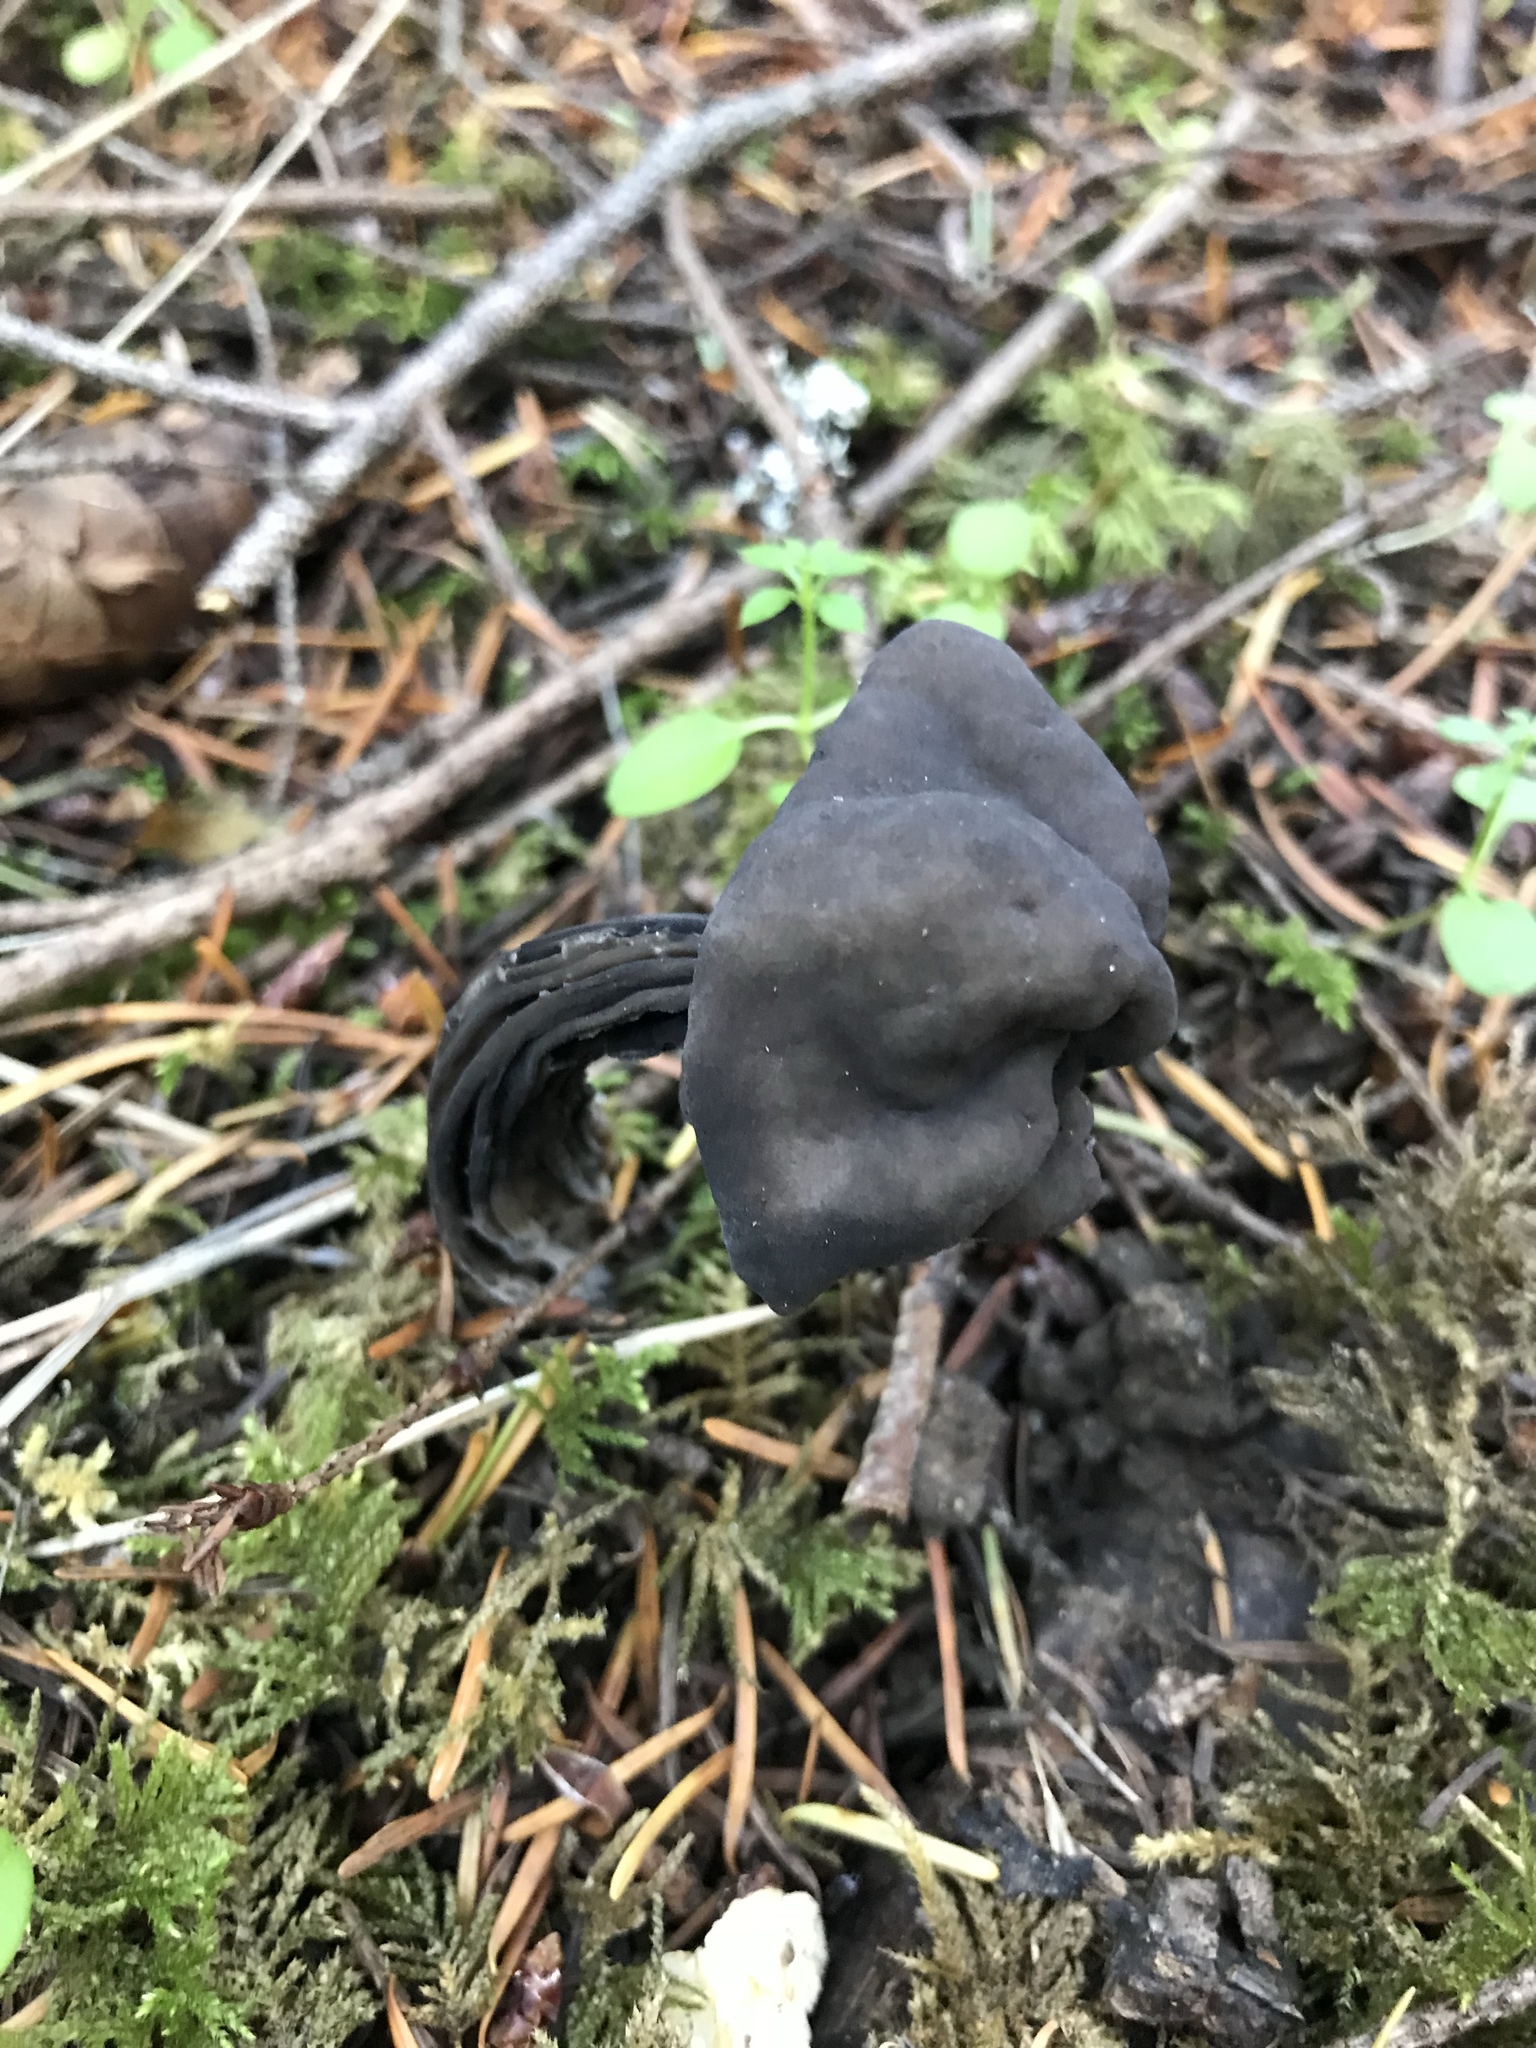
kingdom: Fungi
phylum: Ascomycota
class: Pezizomycetes
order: Pezizales
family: Helvellaceae
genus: Helvella
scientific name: Helvella vespertina
